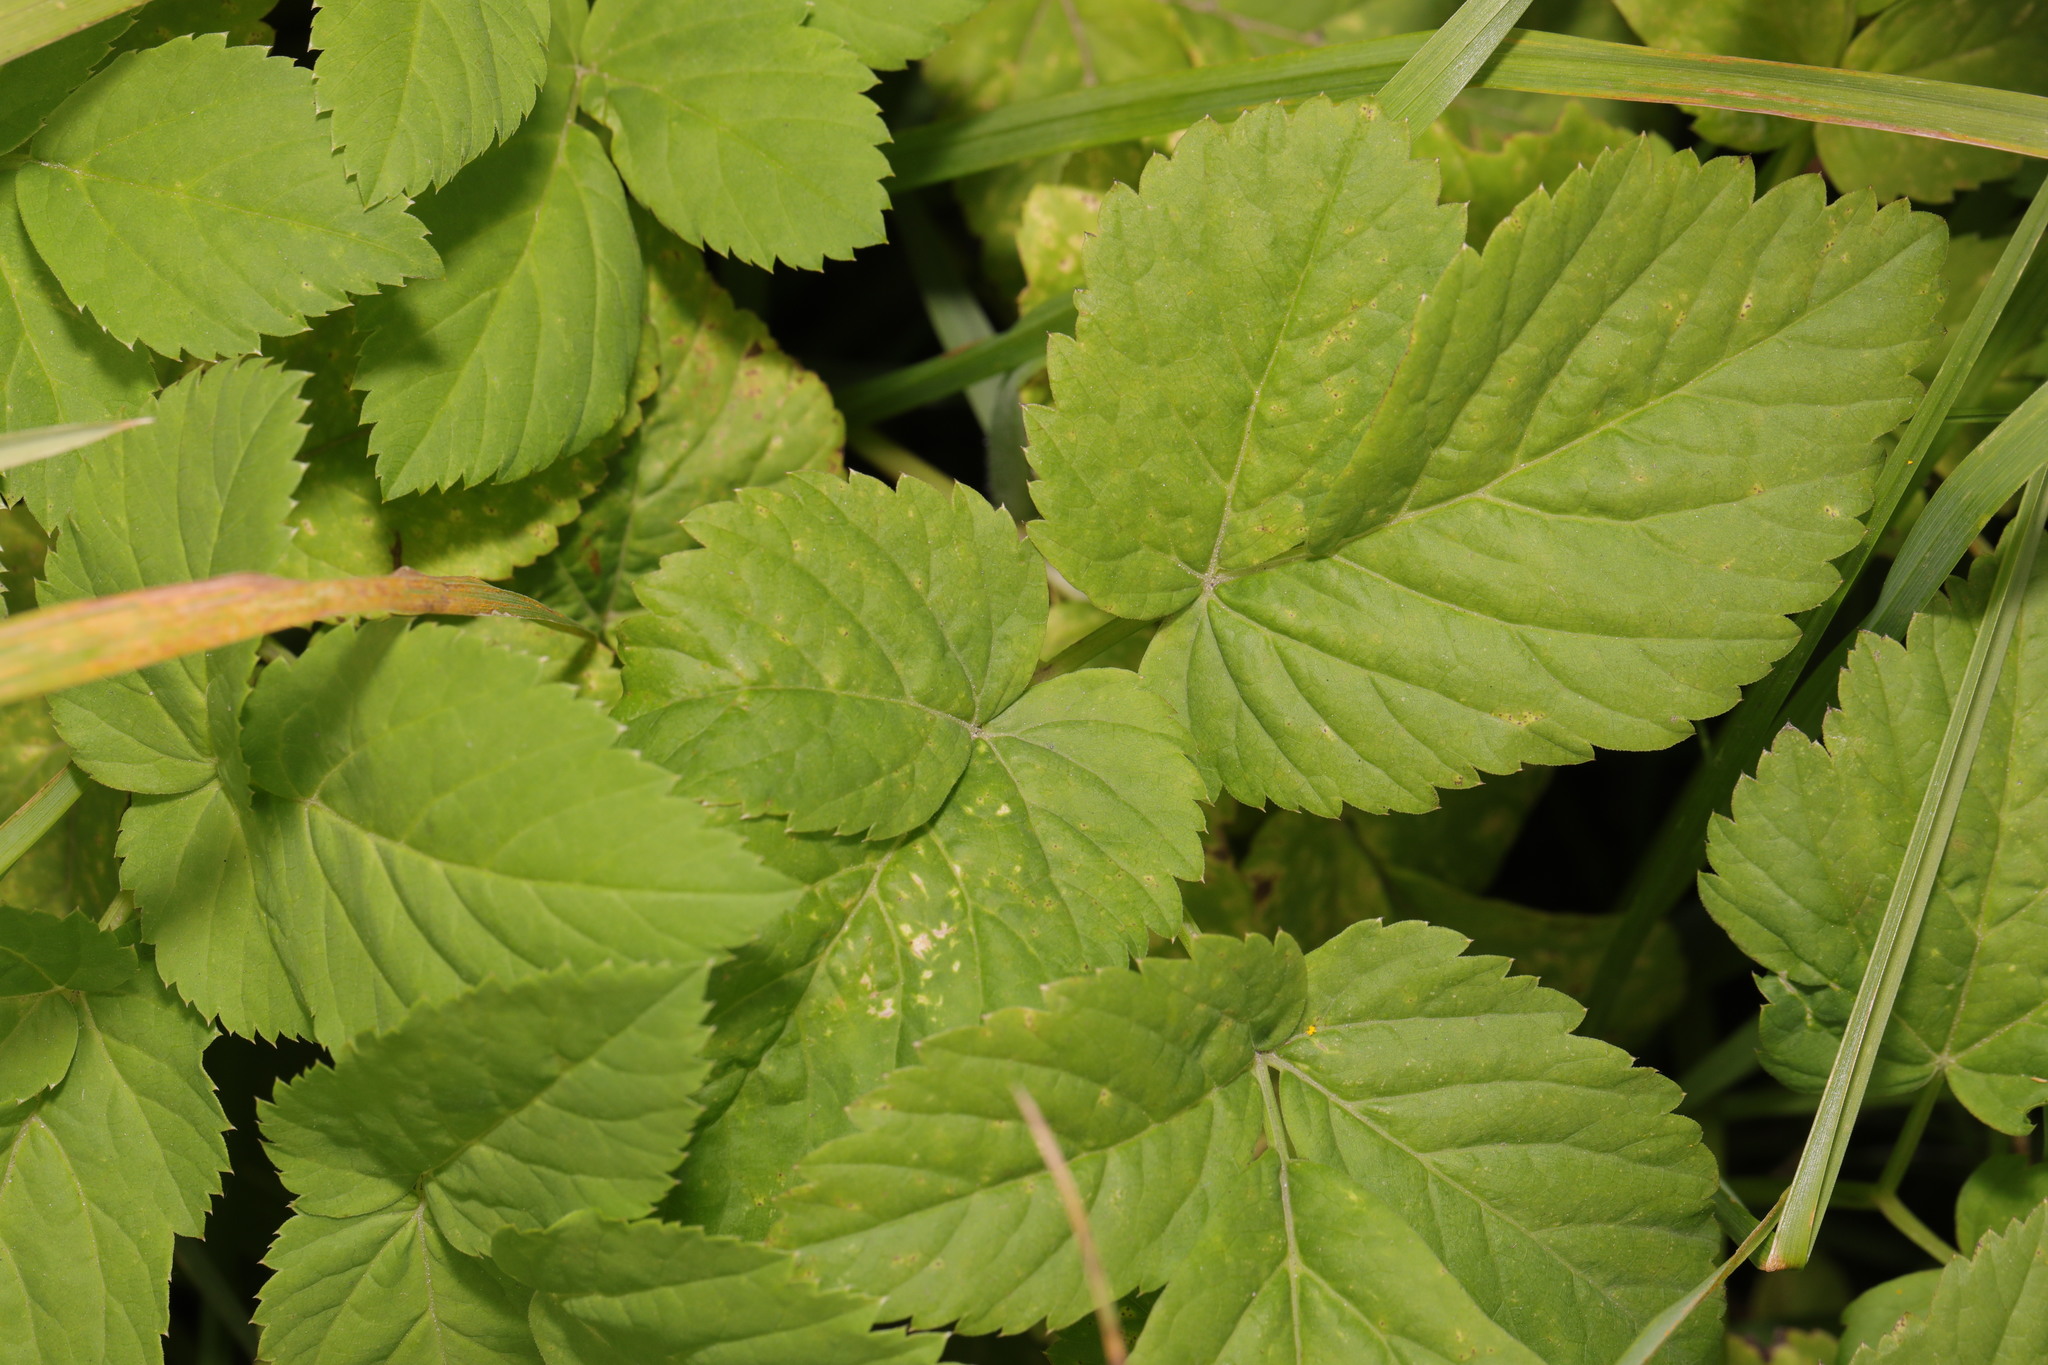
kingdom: Plantae
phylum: Tracheophyta
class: Magnoliopsida
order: Apiales
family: Apiaceae
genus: Aegopodium
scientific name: Aegopodium podagraria
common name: Ground-elder
